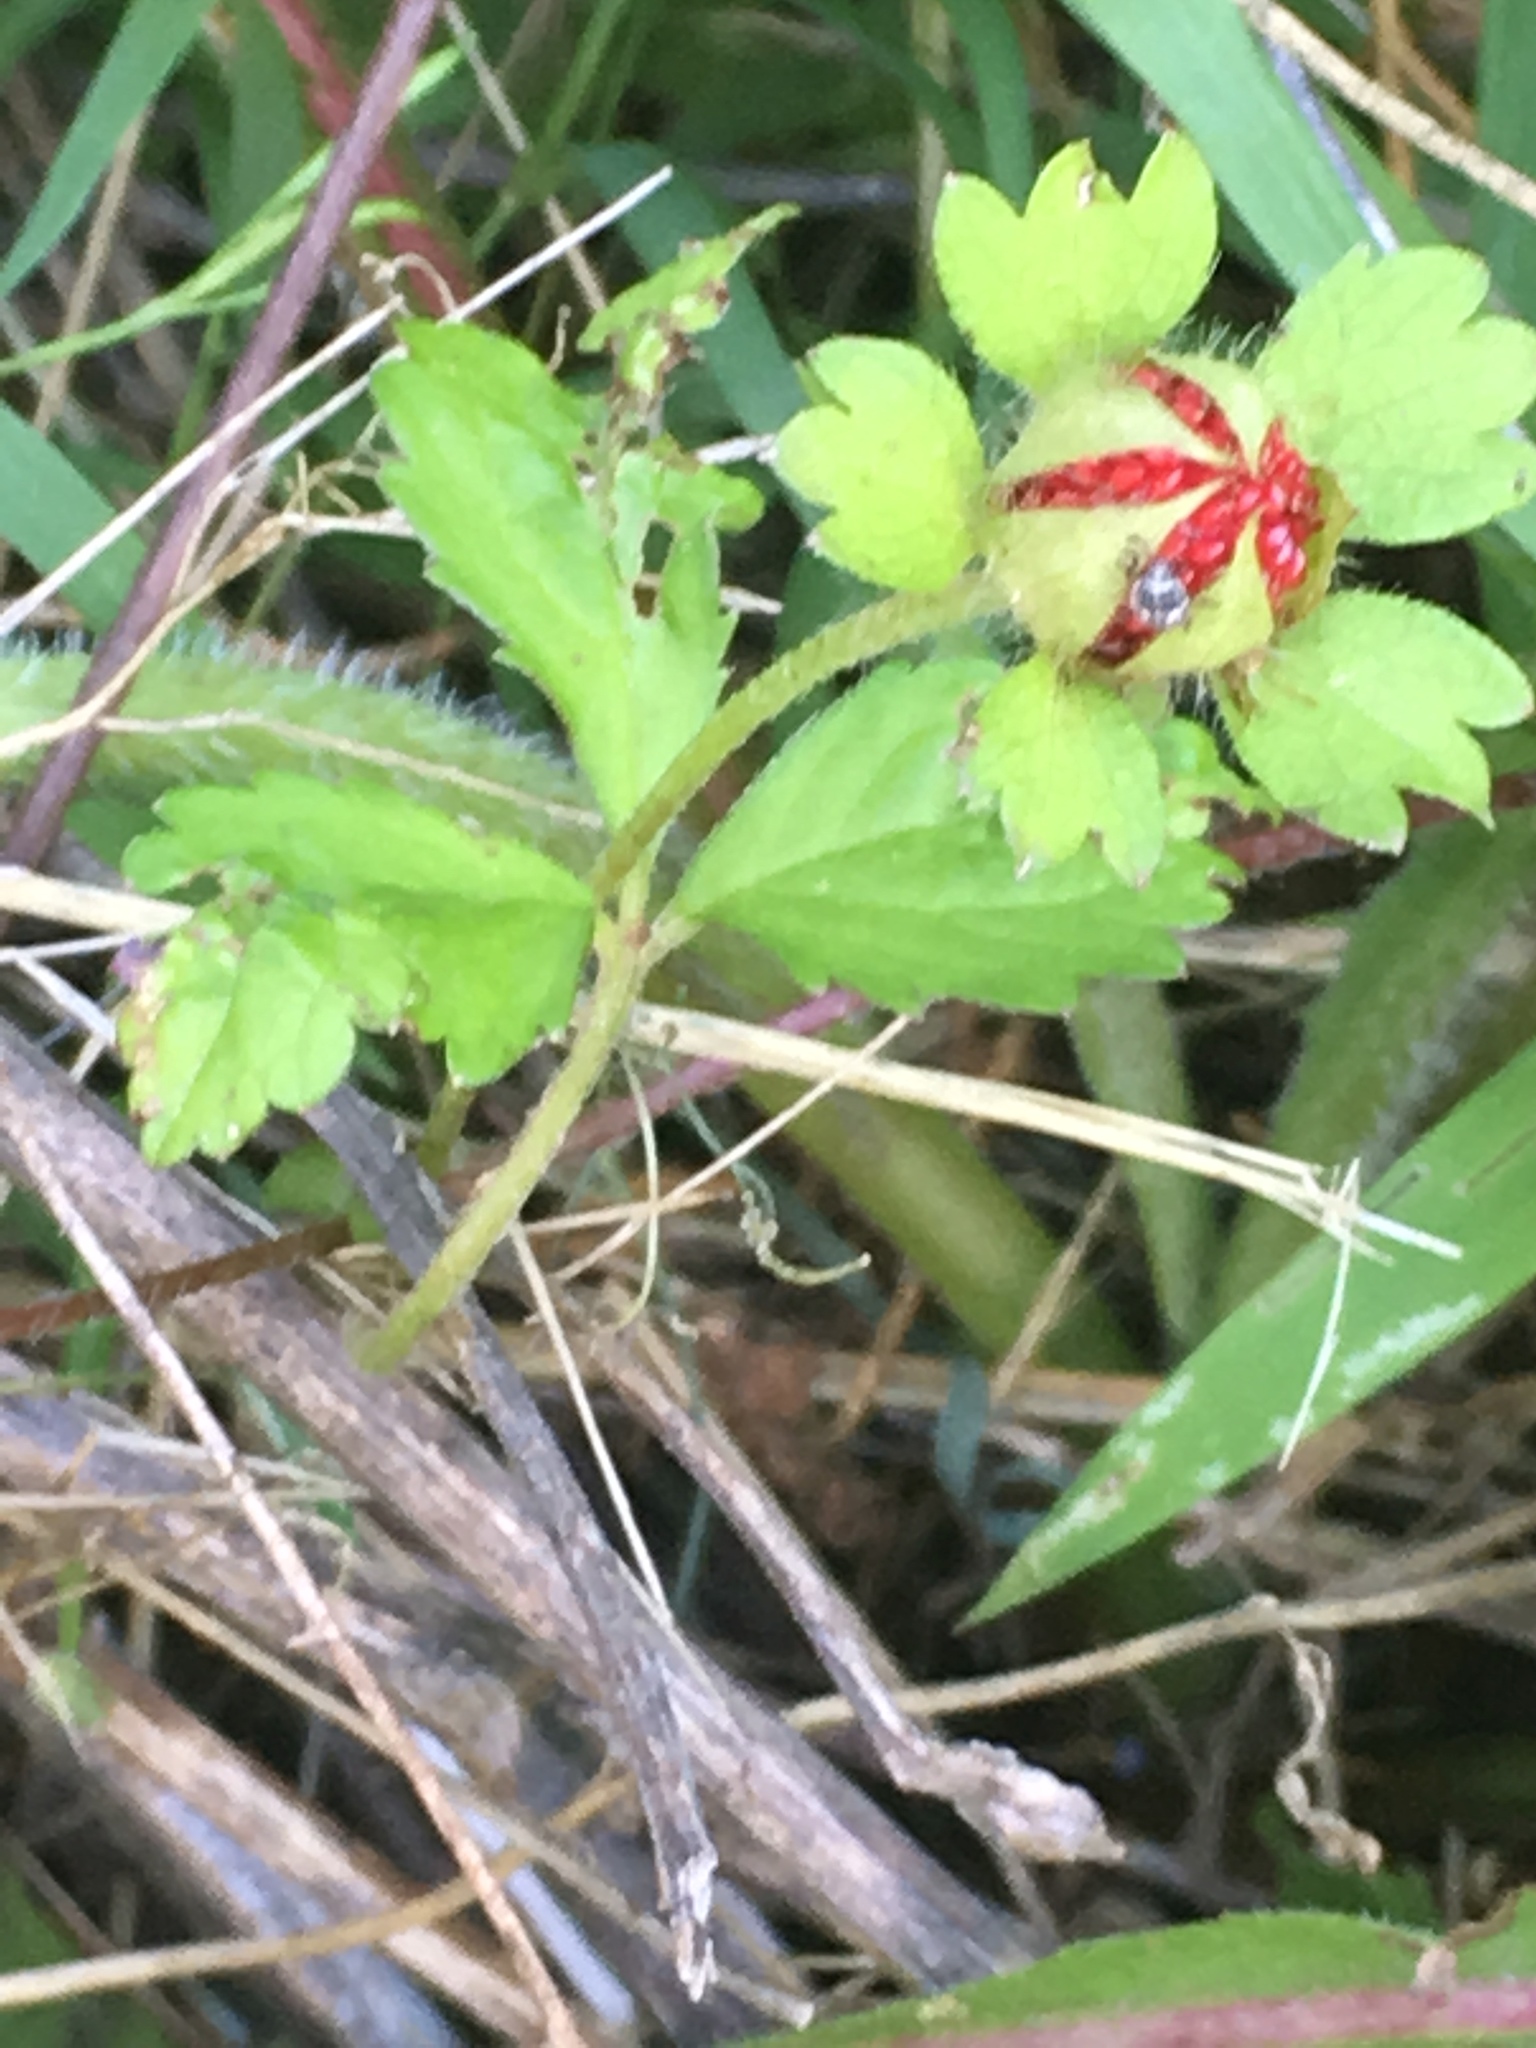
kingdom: Plantae
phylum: Tracheophyta
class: Magnoliopsida
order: Rosales
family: Rosaceae
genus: Potentilla
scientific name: Potentilla indica
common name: Yellow-flowered strawberry
